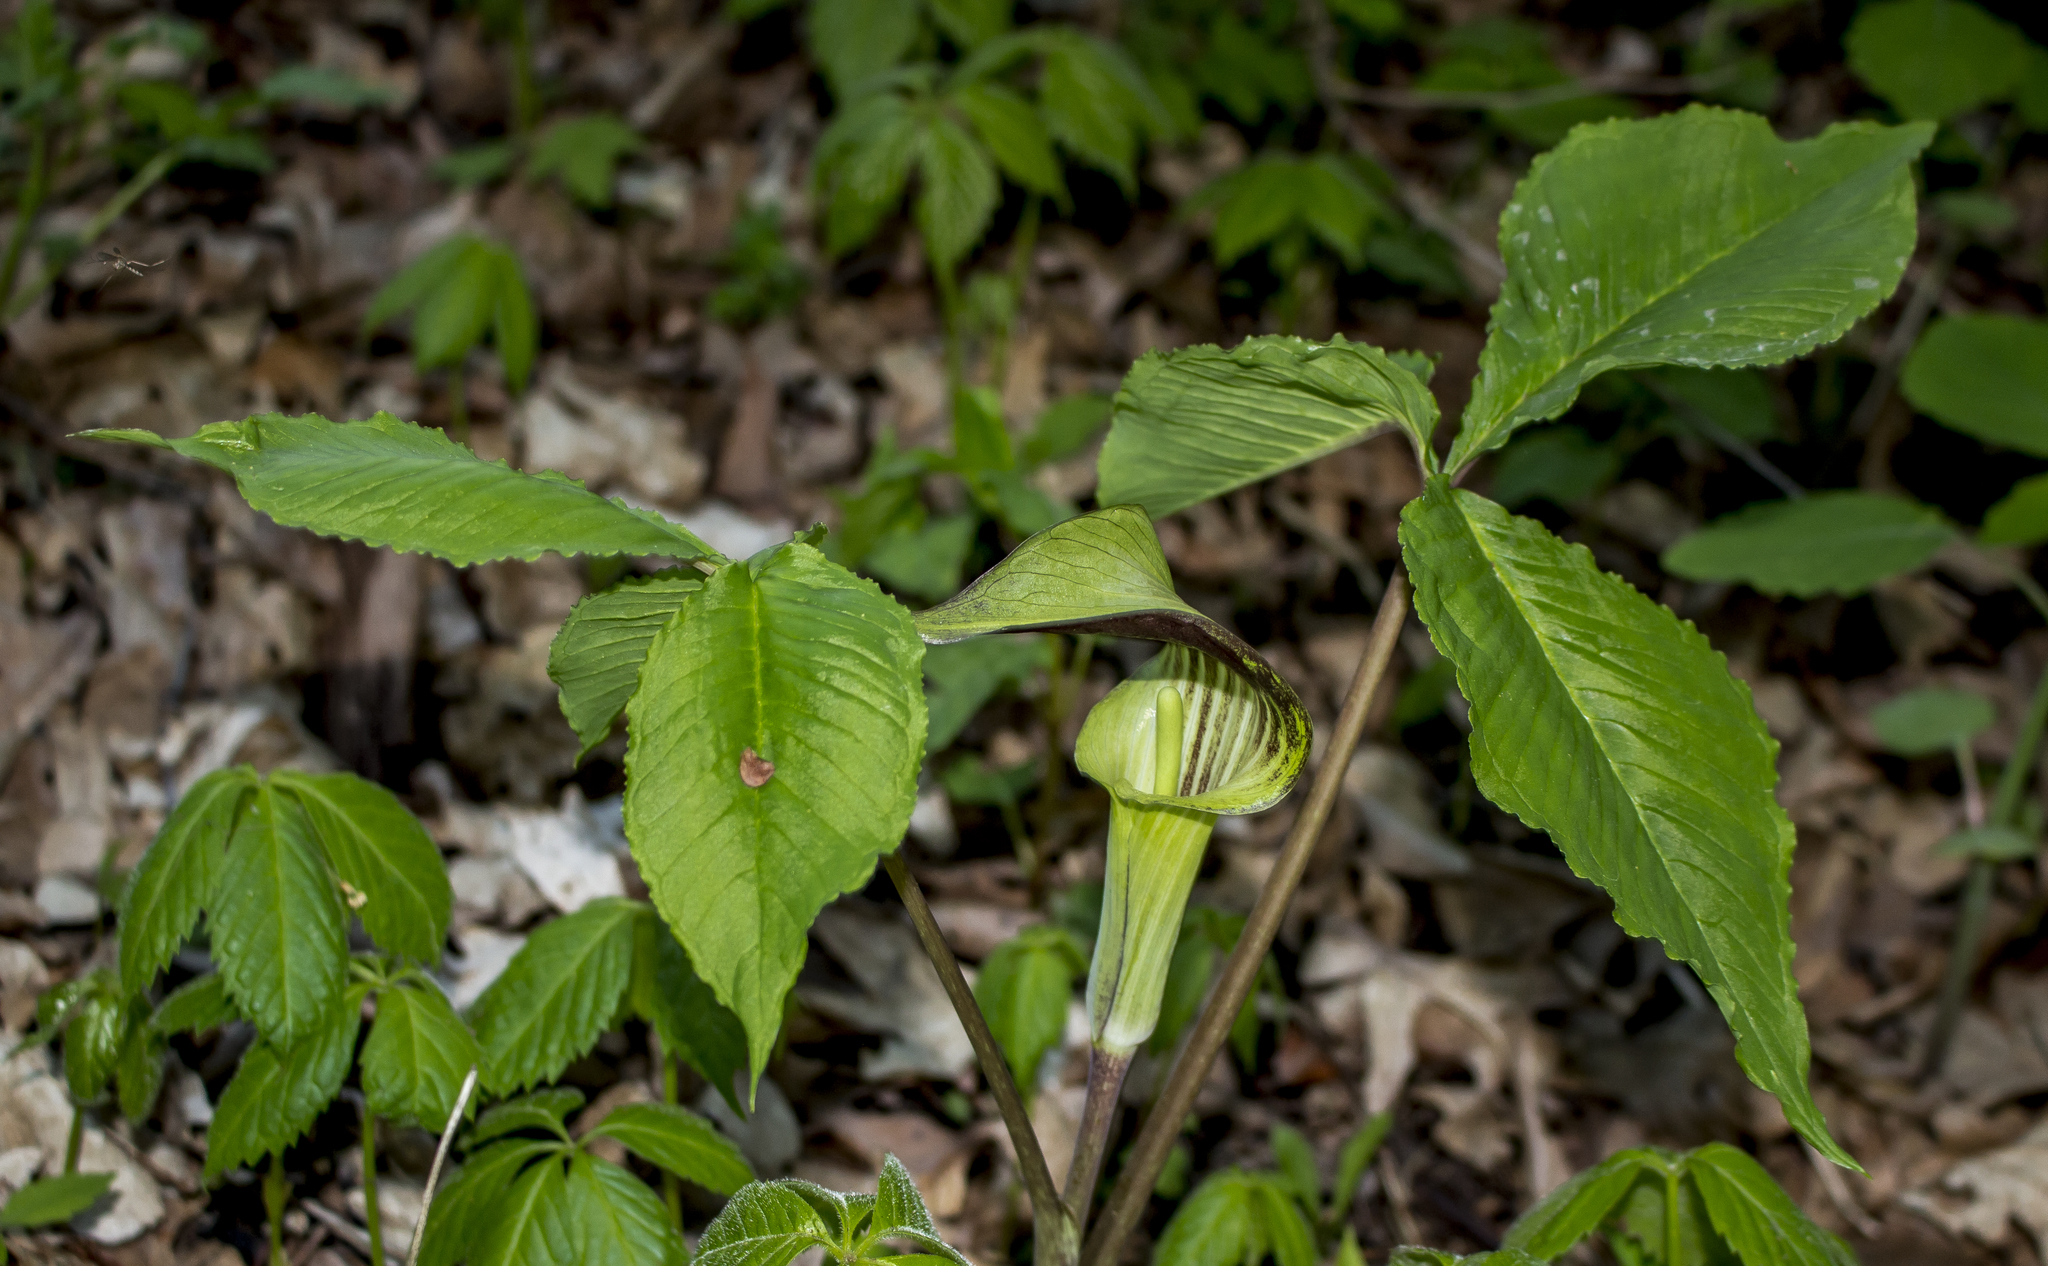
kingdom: Plantae
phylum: Tracheophyta
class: Liliopsida
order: Alismatales
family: Araceae
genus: Arisaema
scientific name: Arisaema triphyllum
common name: Jack-in-the-pulpit
